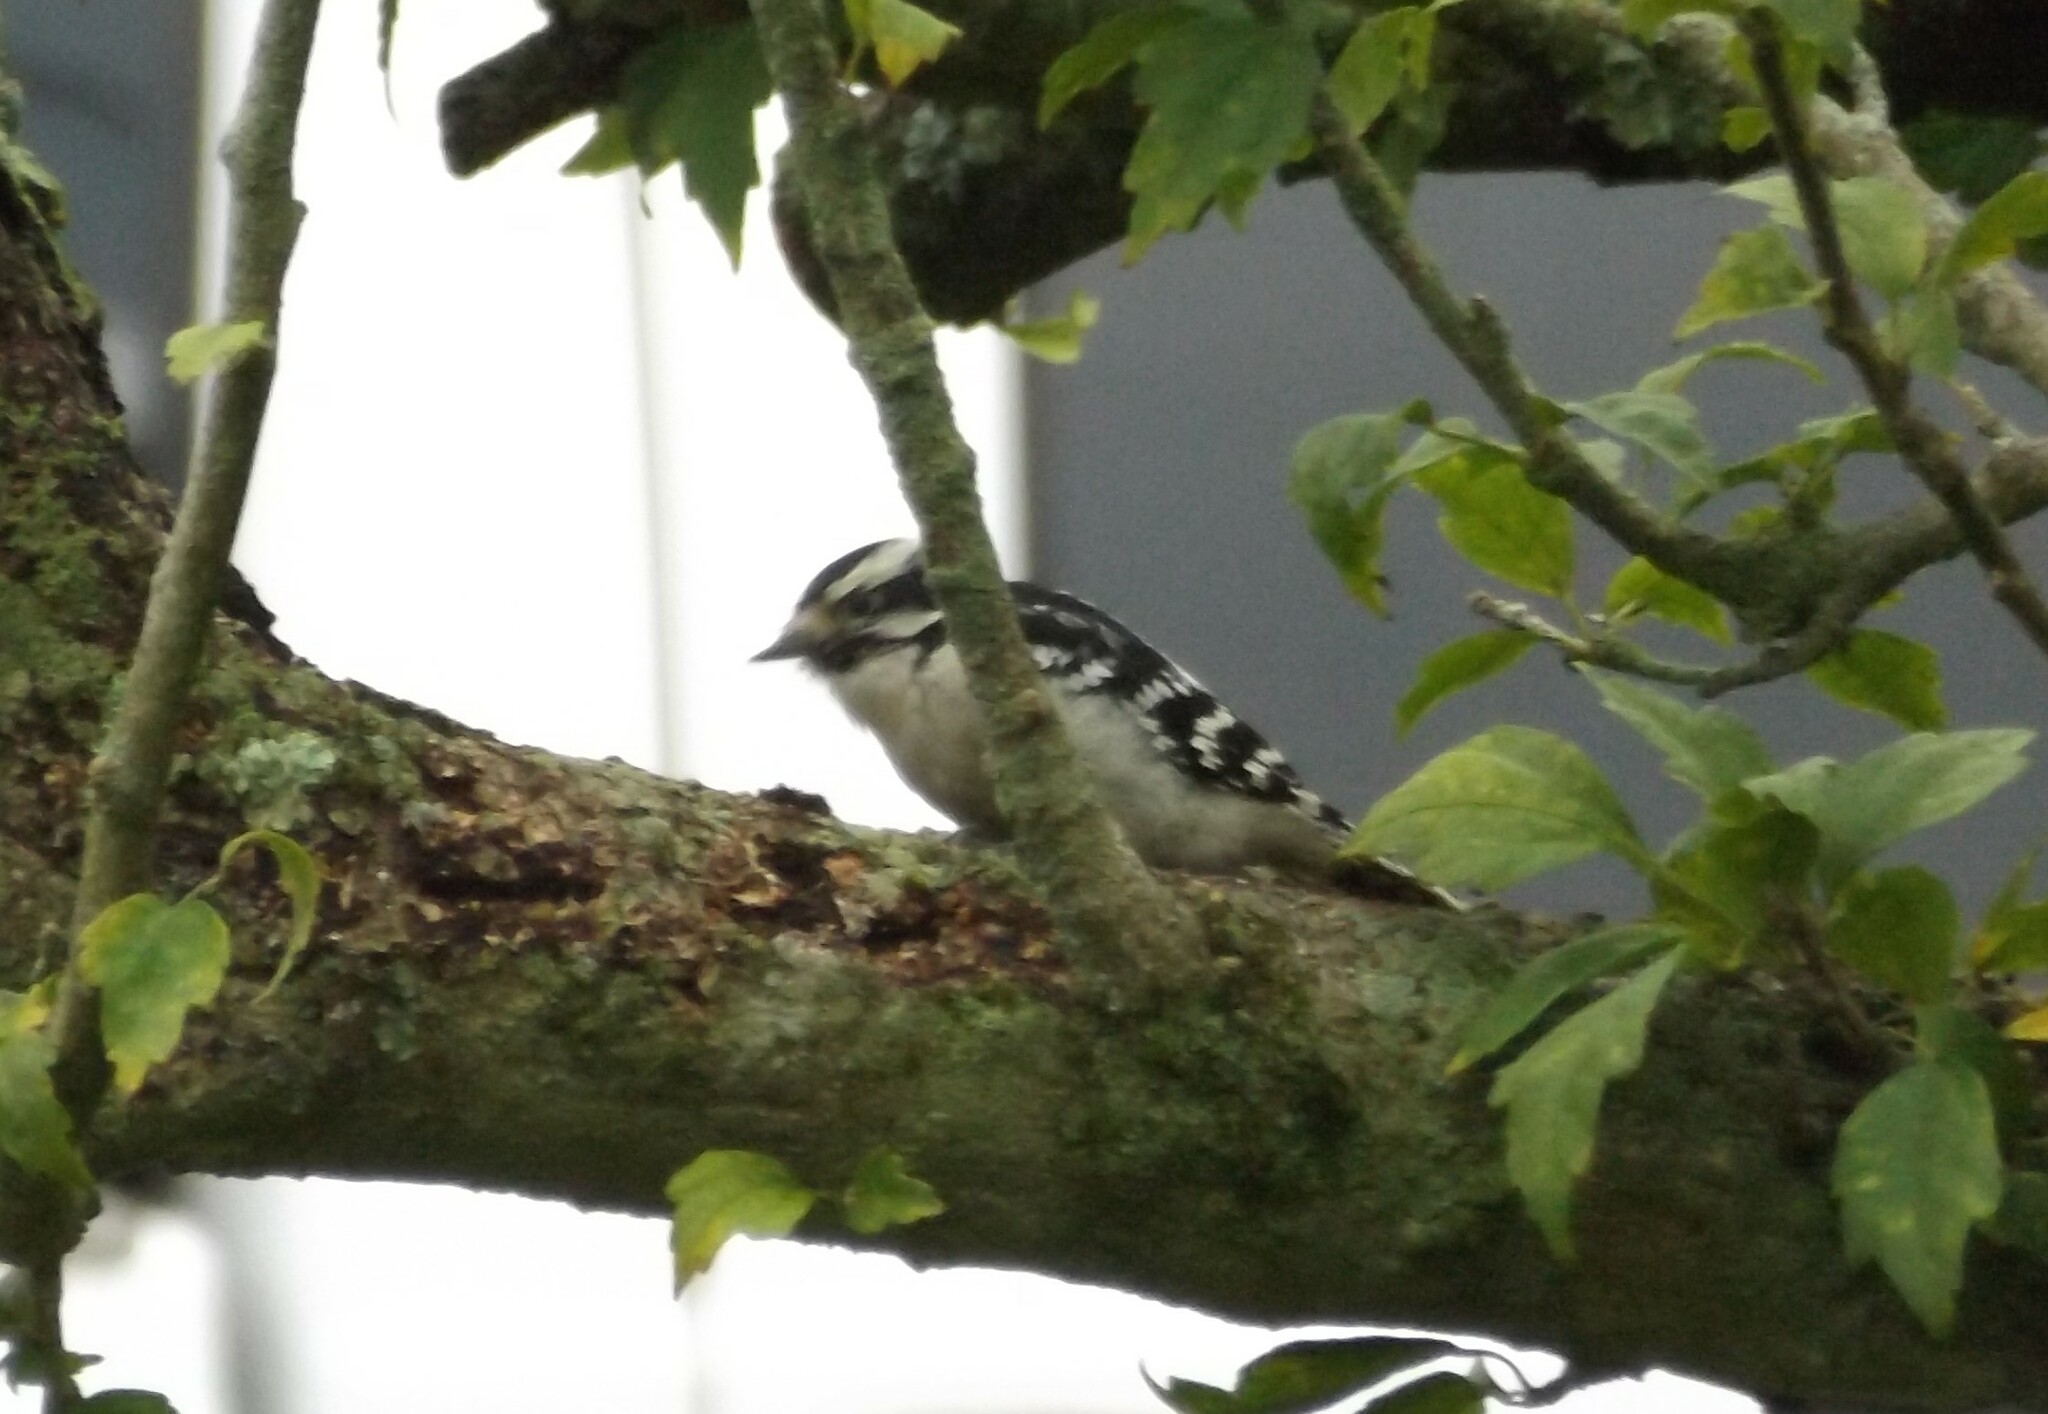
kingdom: Animalia
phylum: Chordata
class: Aves
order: Piciformes
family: Picidae
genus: Dryobates
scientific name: Dryobates pubescens
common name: Downy woodpecker
